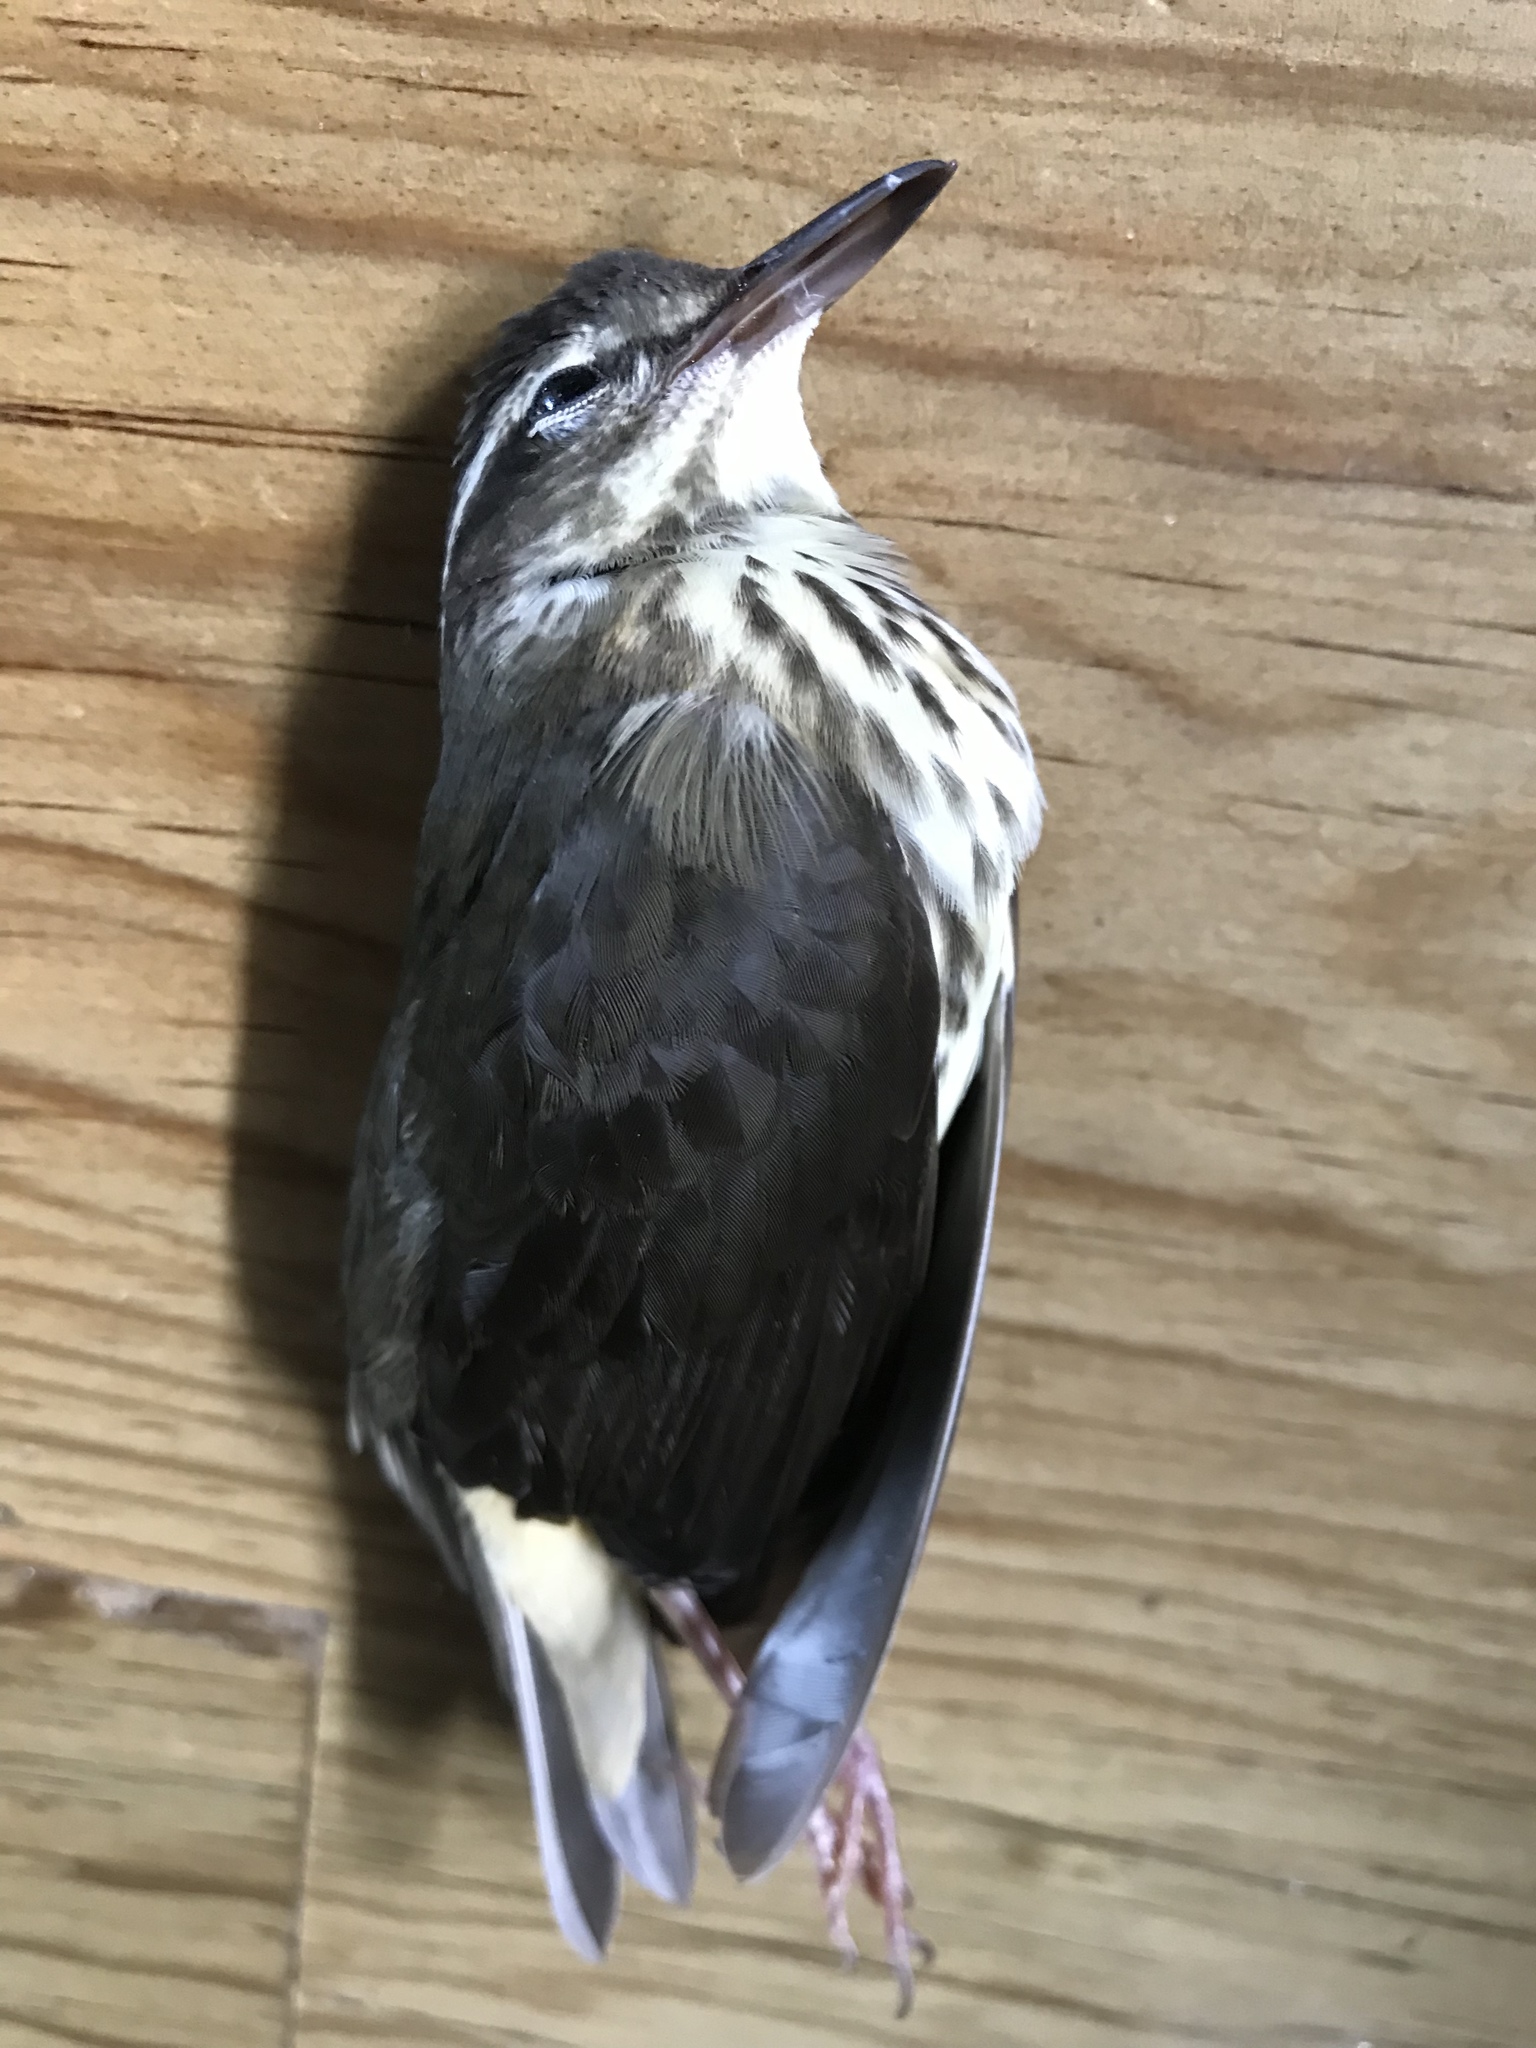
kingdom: Animalia
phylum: Chordata
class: Aves
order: Passeriformes
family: Parulidae
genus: Parkesia
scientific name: Parkesia motacilla
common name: Louisiana waterthrush
